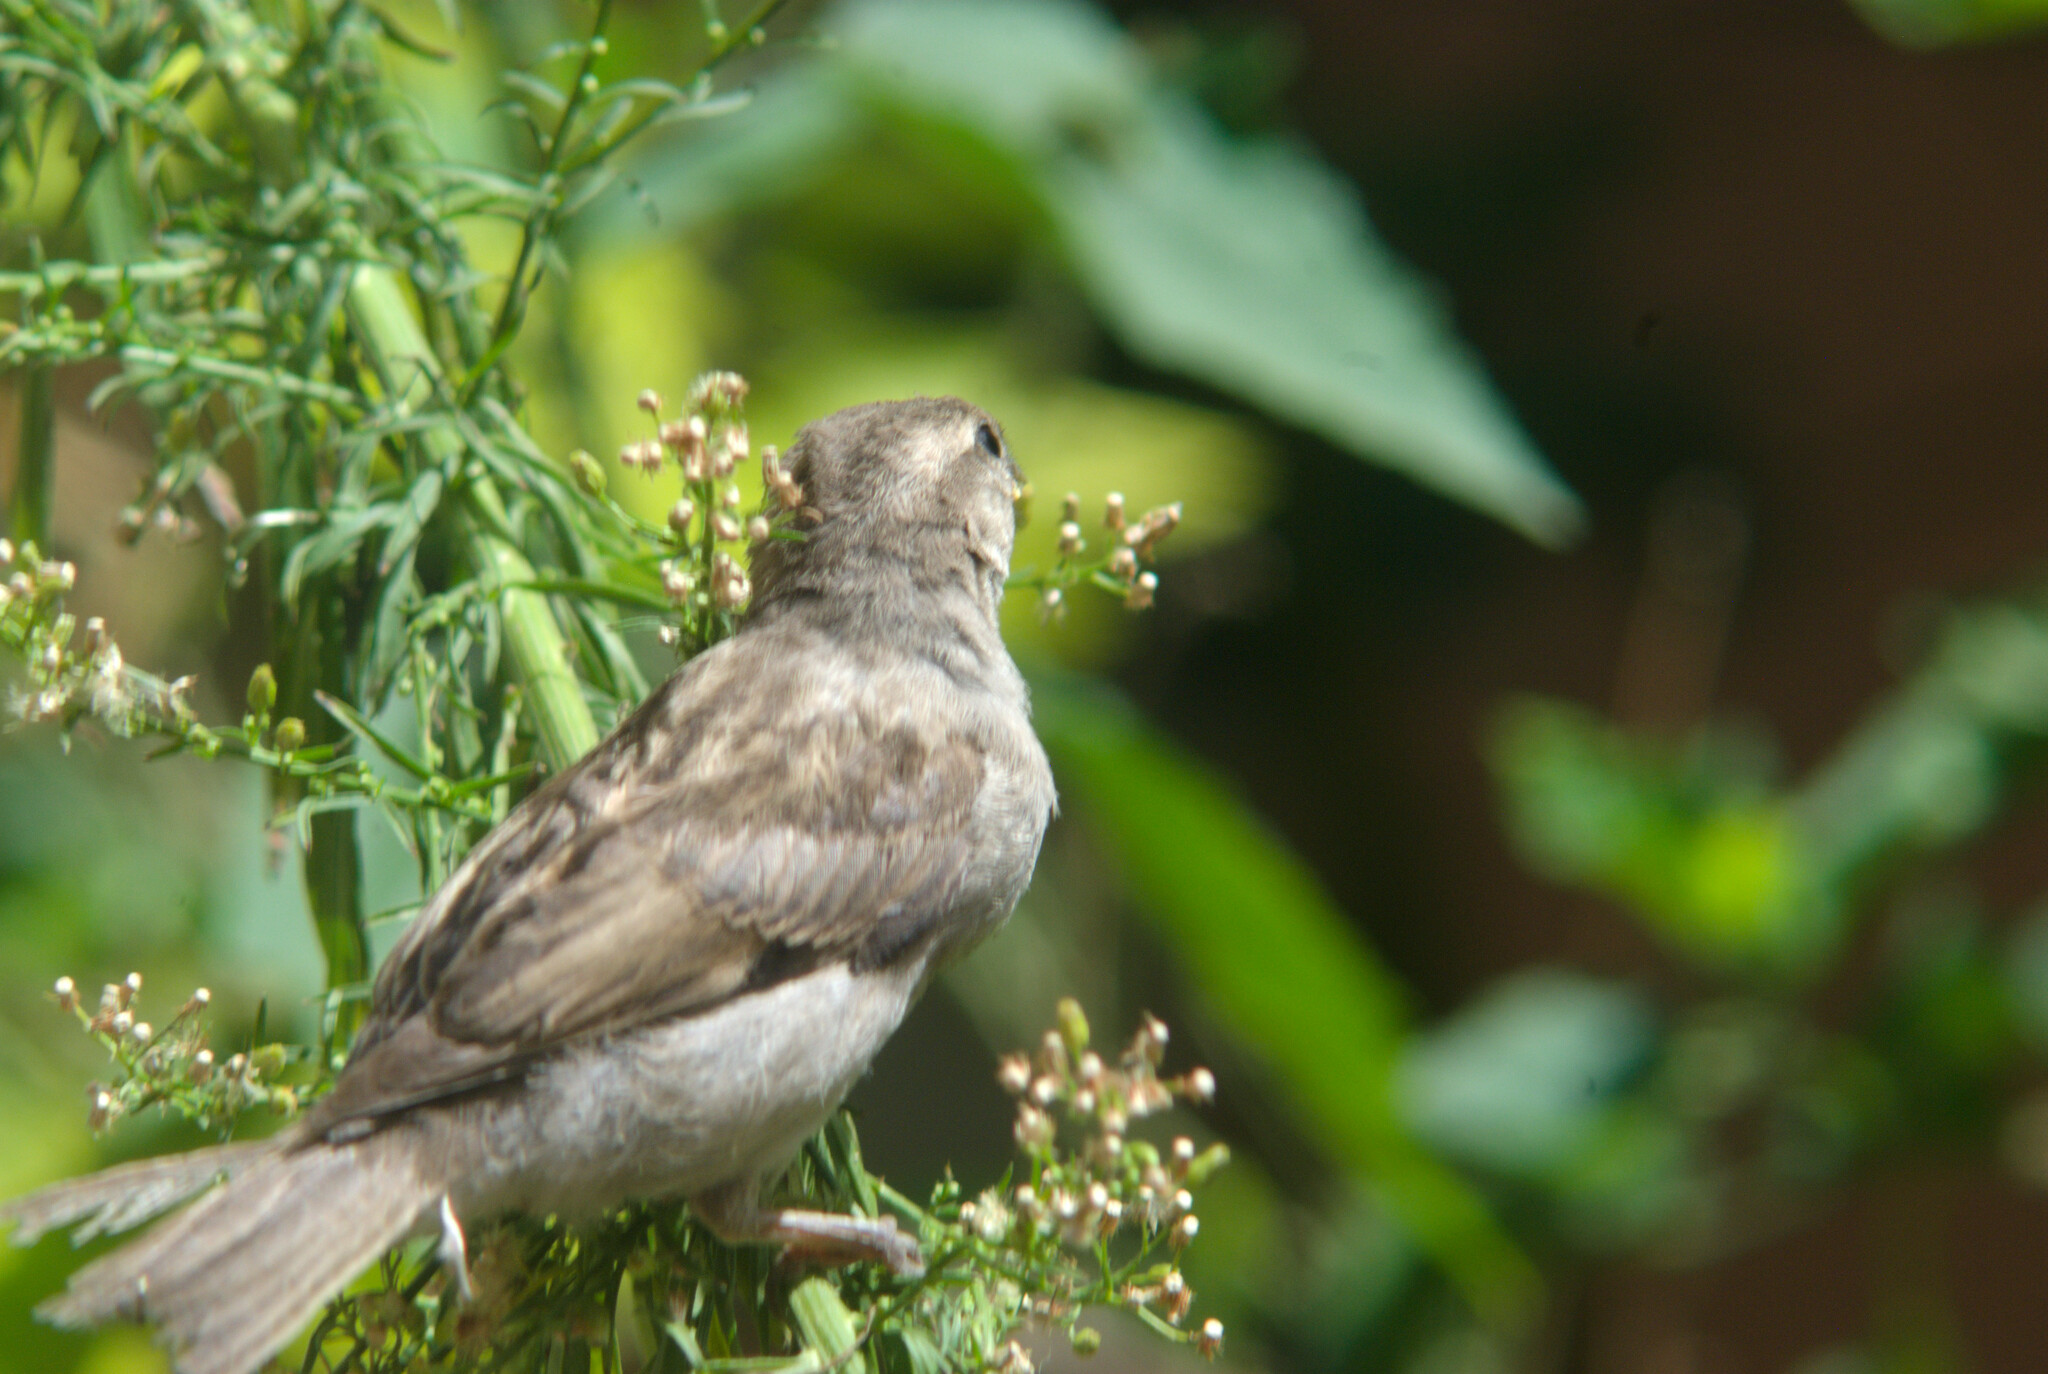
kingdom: Animalia
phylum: Chordata
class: Aves
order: Passeriformes
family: Passeridae
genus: Passer
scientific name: Passer domesticus
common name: House sparrow
